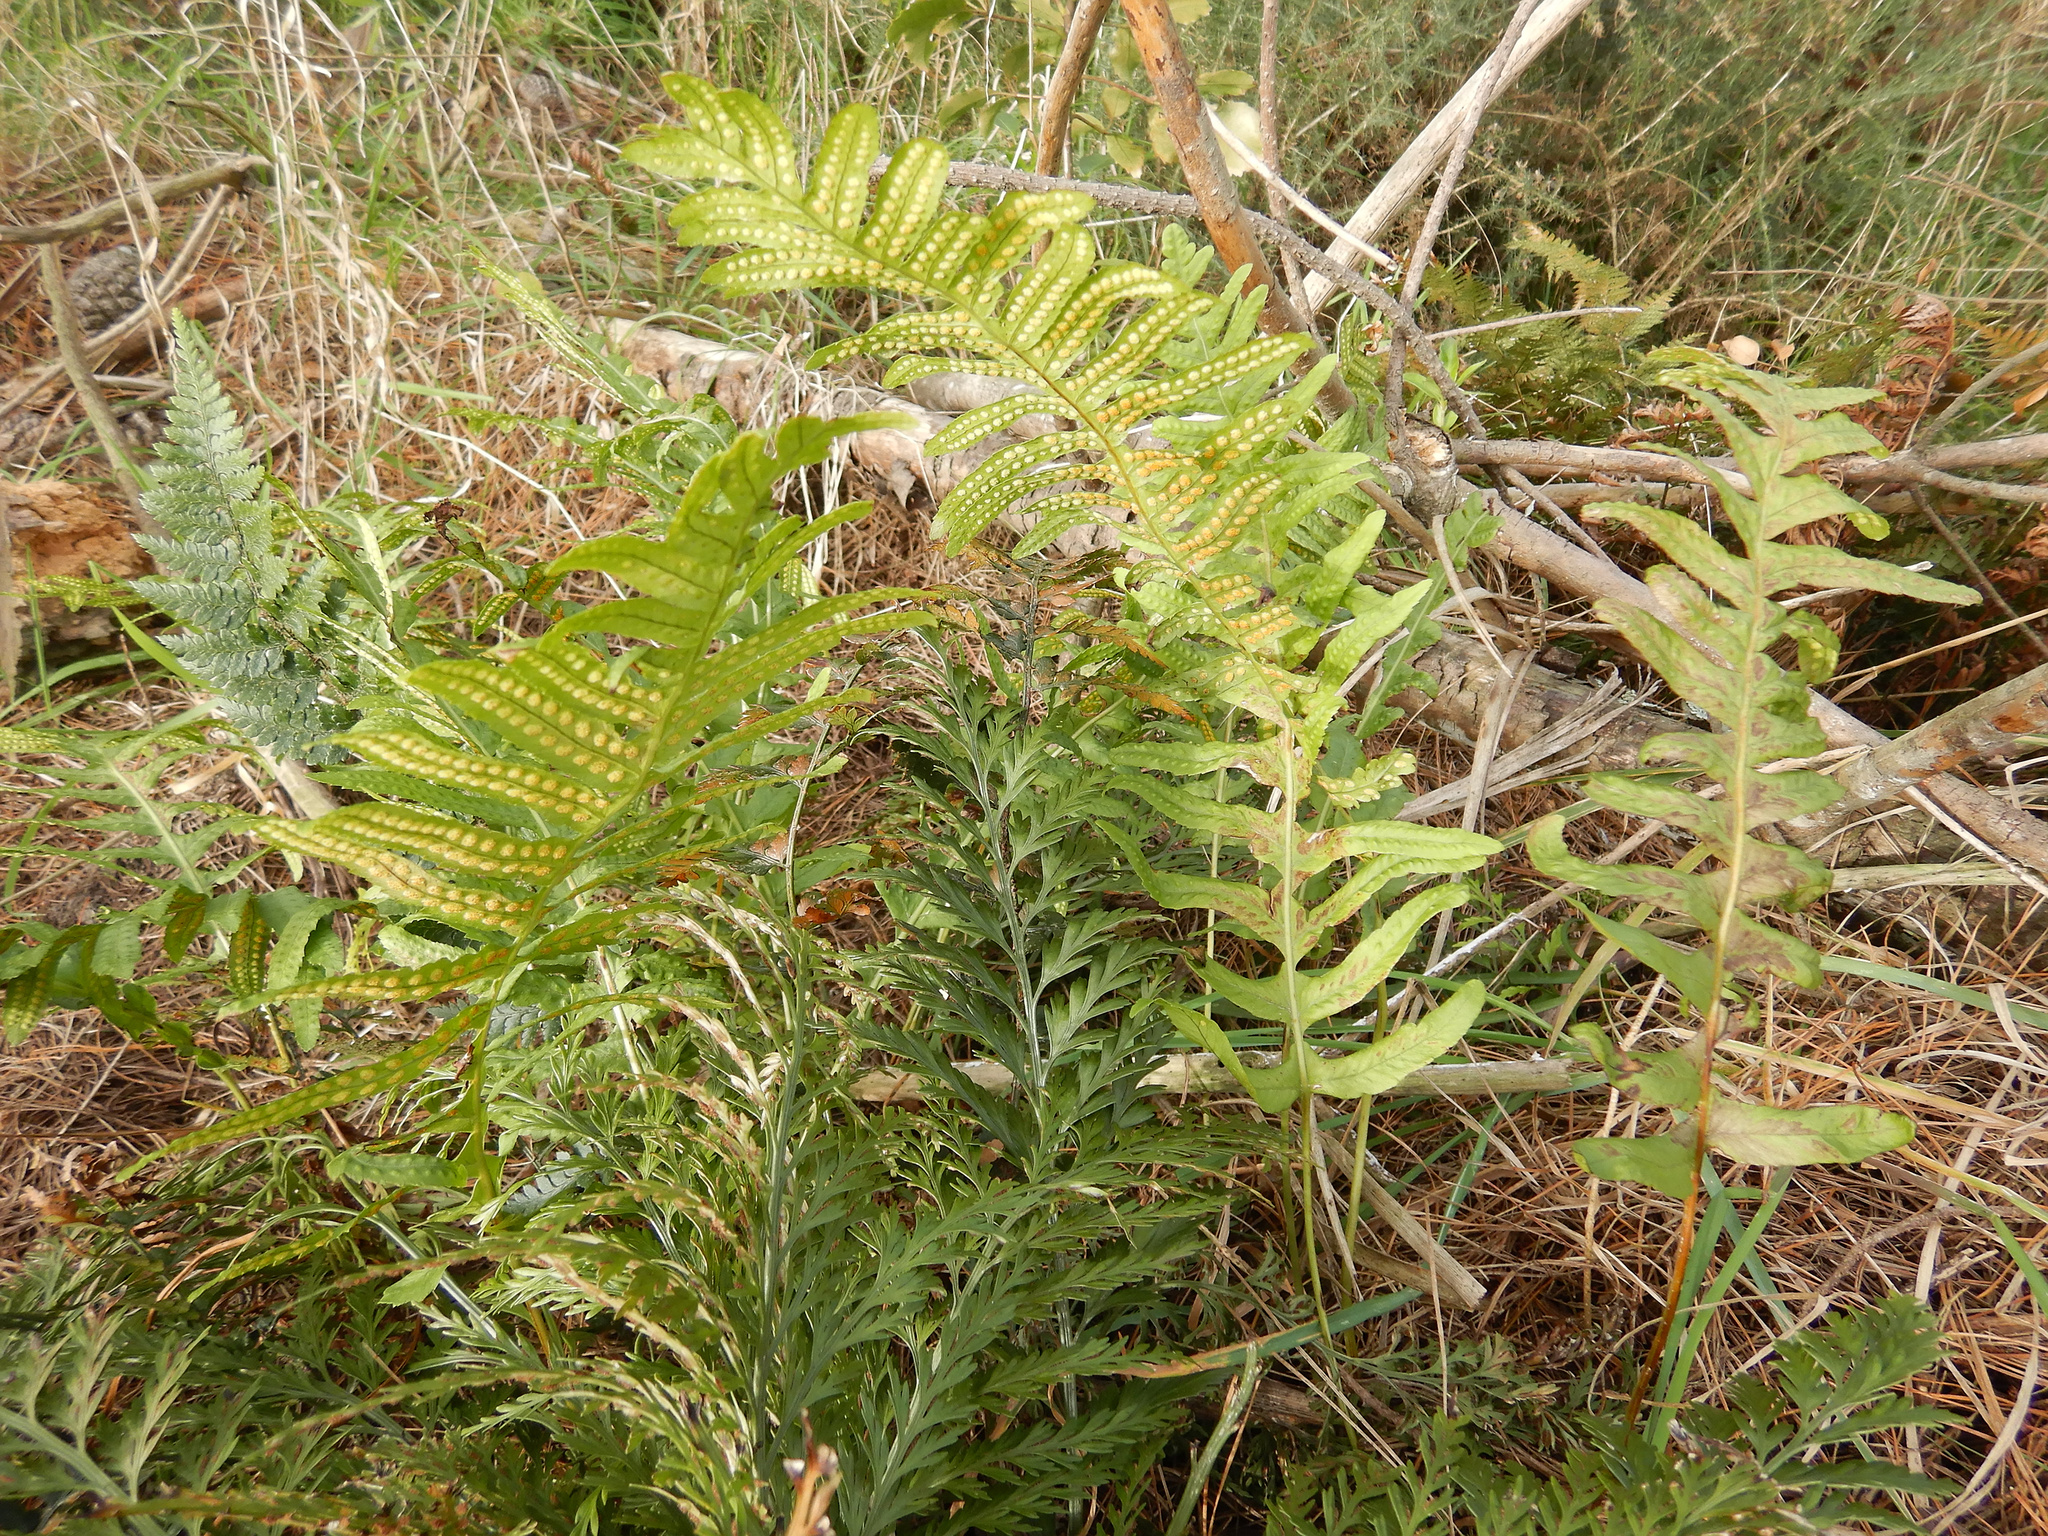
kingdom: Plantae
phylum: Tracheophyta
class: Polypodiopsida
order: Polypodiales
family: Polypodiaceae
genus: Polypodium
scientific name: Polypodium vulgare
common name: Common polypody
